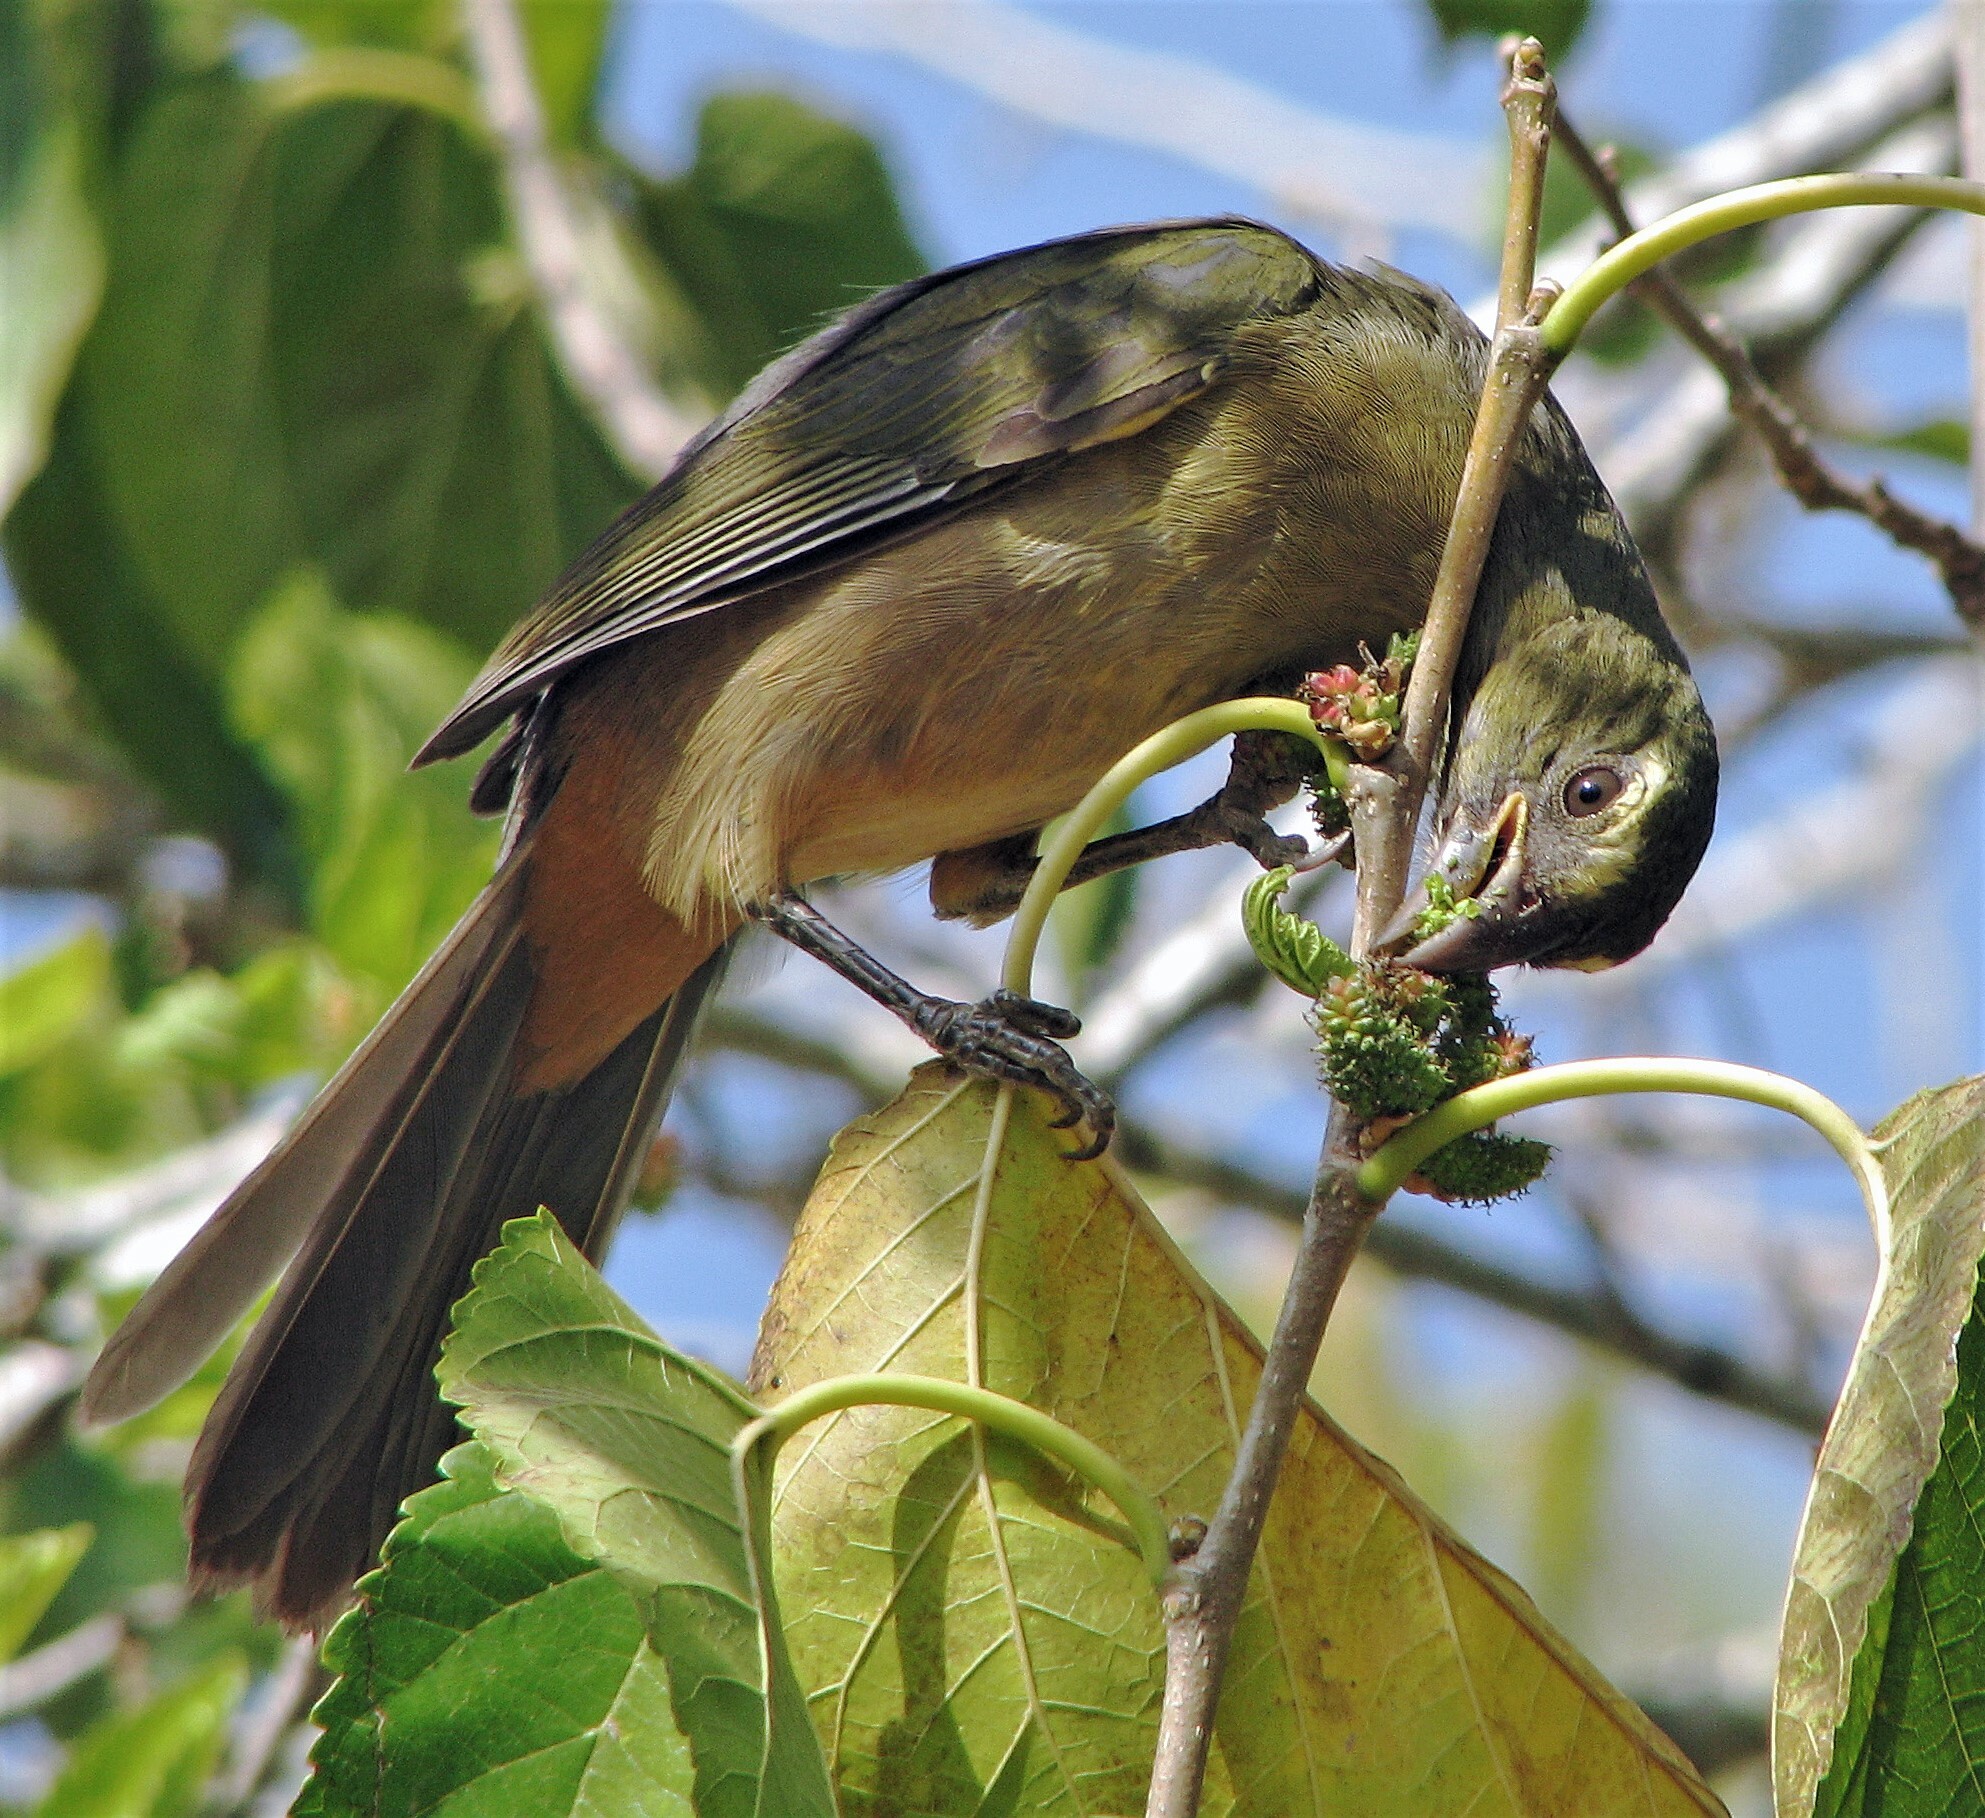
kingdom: Animalia
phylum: Chordata
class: Aves
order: Passeriformes
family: Thraupidae
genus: Saltator
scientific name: Saltator coerulescens
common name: Grayish saltator
